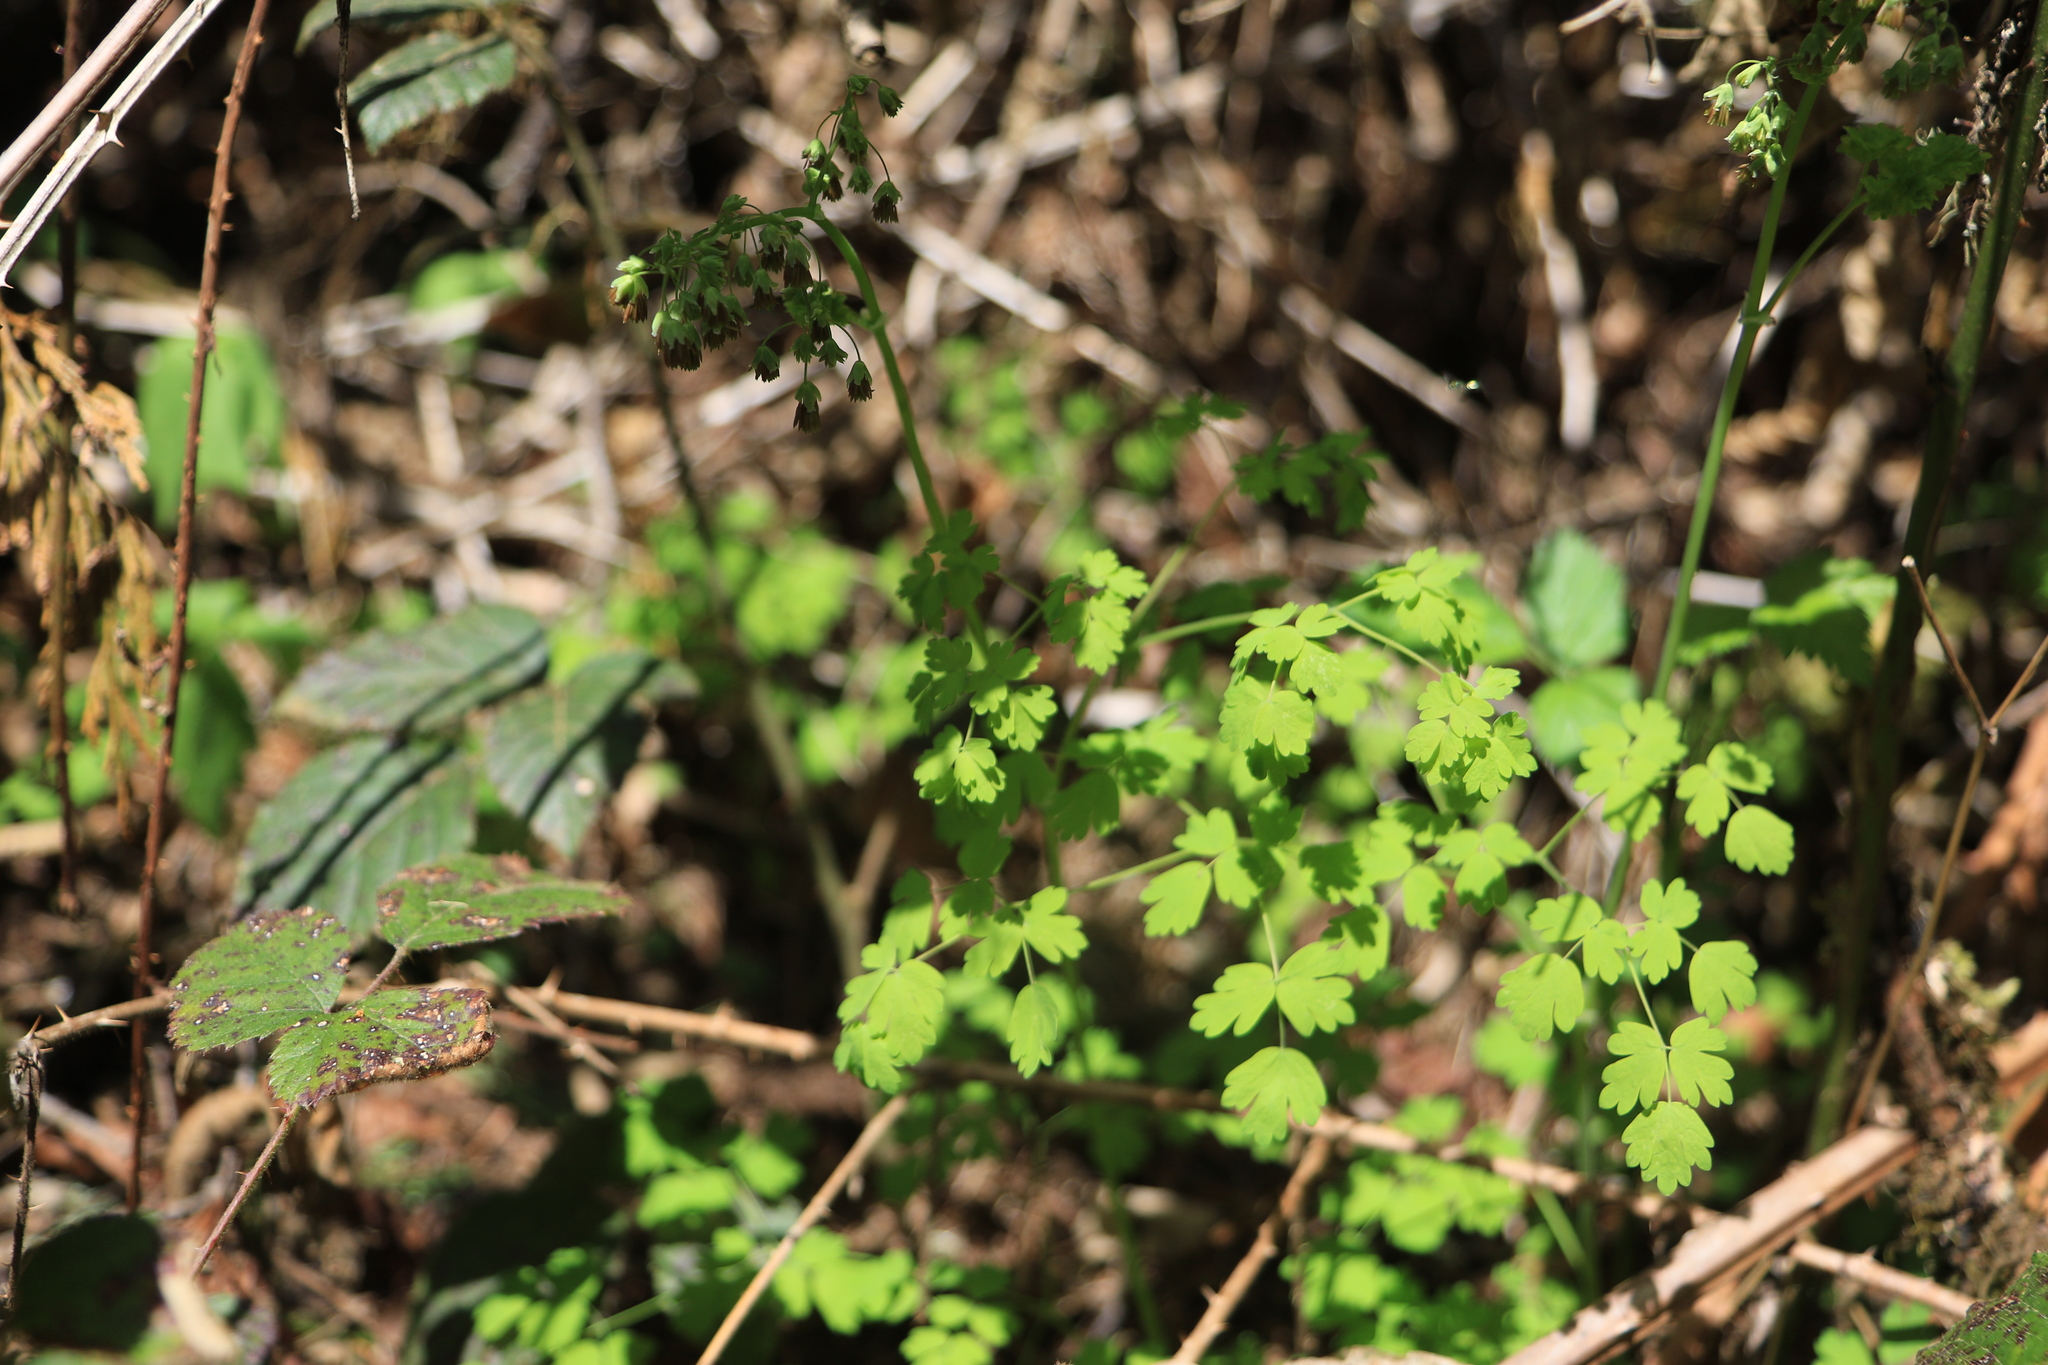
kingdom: Plantae
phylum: Tracheophyta
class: Magnoliopsida
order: Ranunculales
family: Ranunculaceae
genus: Thalictrum
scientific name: Thalictrum occidentale
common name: Western meadow-rue
